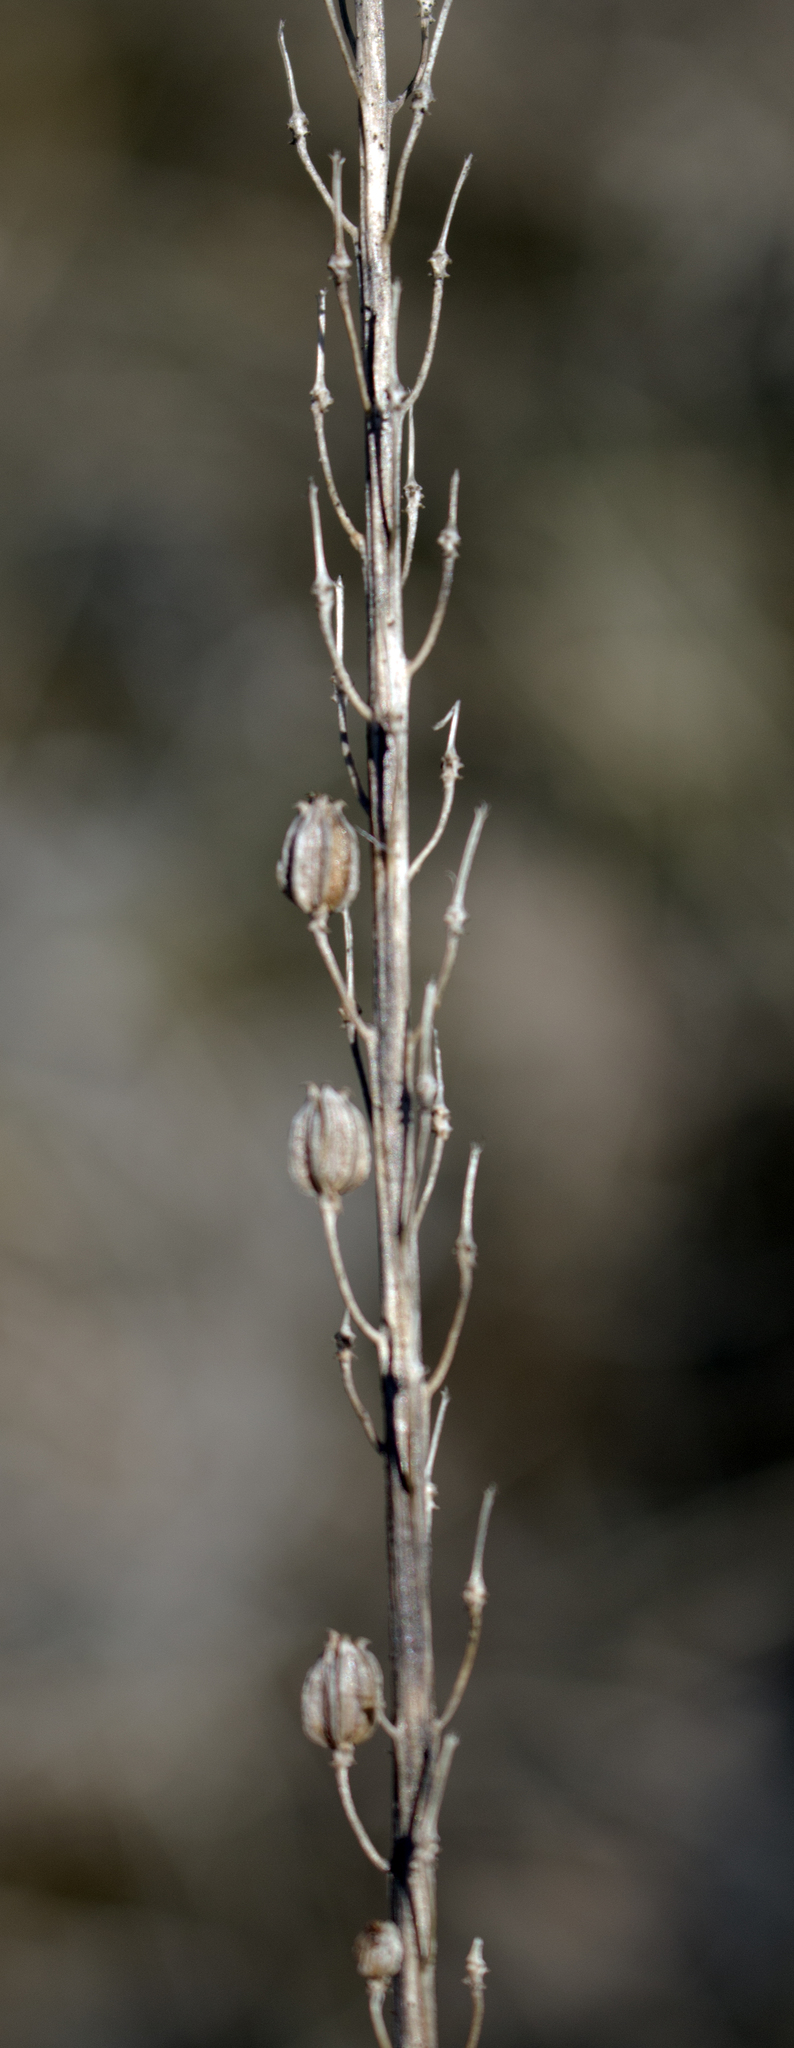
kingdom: Plantae
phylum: Tracheophyta
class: Liliopsida
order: Alismatales
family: Juncaginaceae
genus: Triglochin
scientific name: Triglochin maritima
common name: Sea arrowgrass
